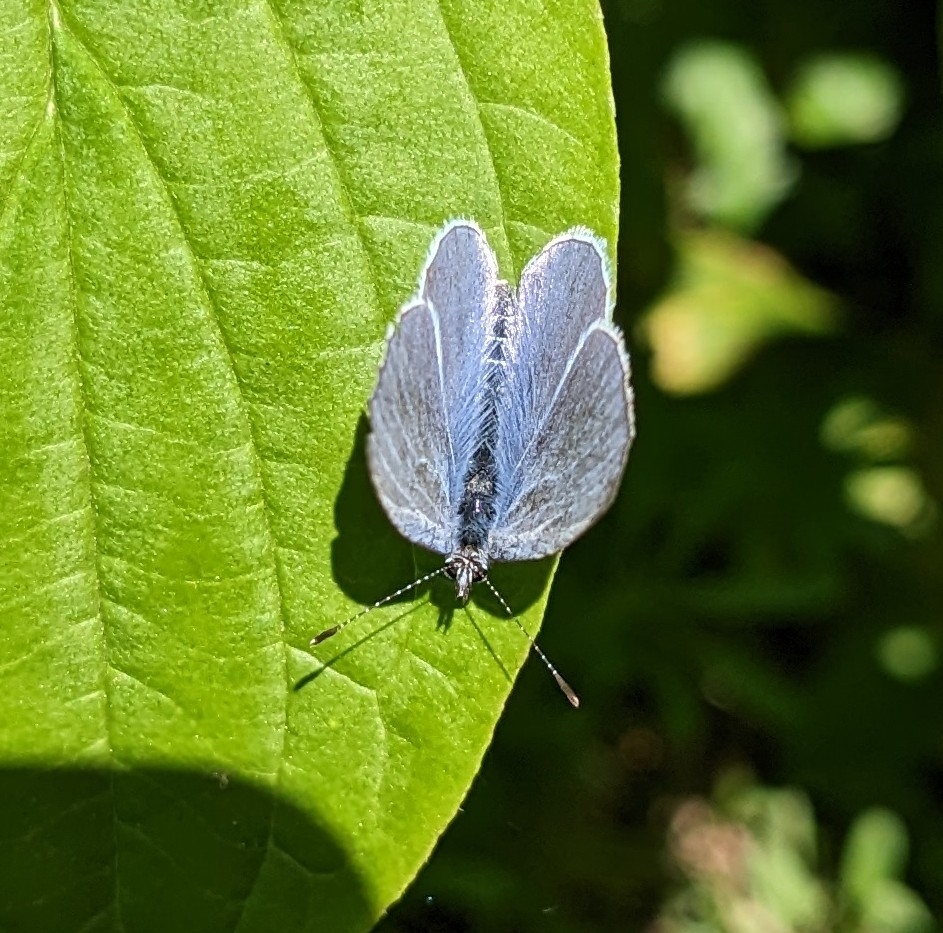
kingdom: Animalia
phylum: Arthropoda
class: Insecta
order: Lepidoptera
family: Lycaenidae
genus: Celastrina
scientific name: Celastrina argiolus
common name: Holly blue
